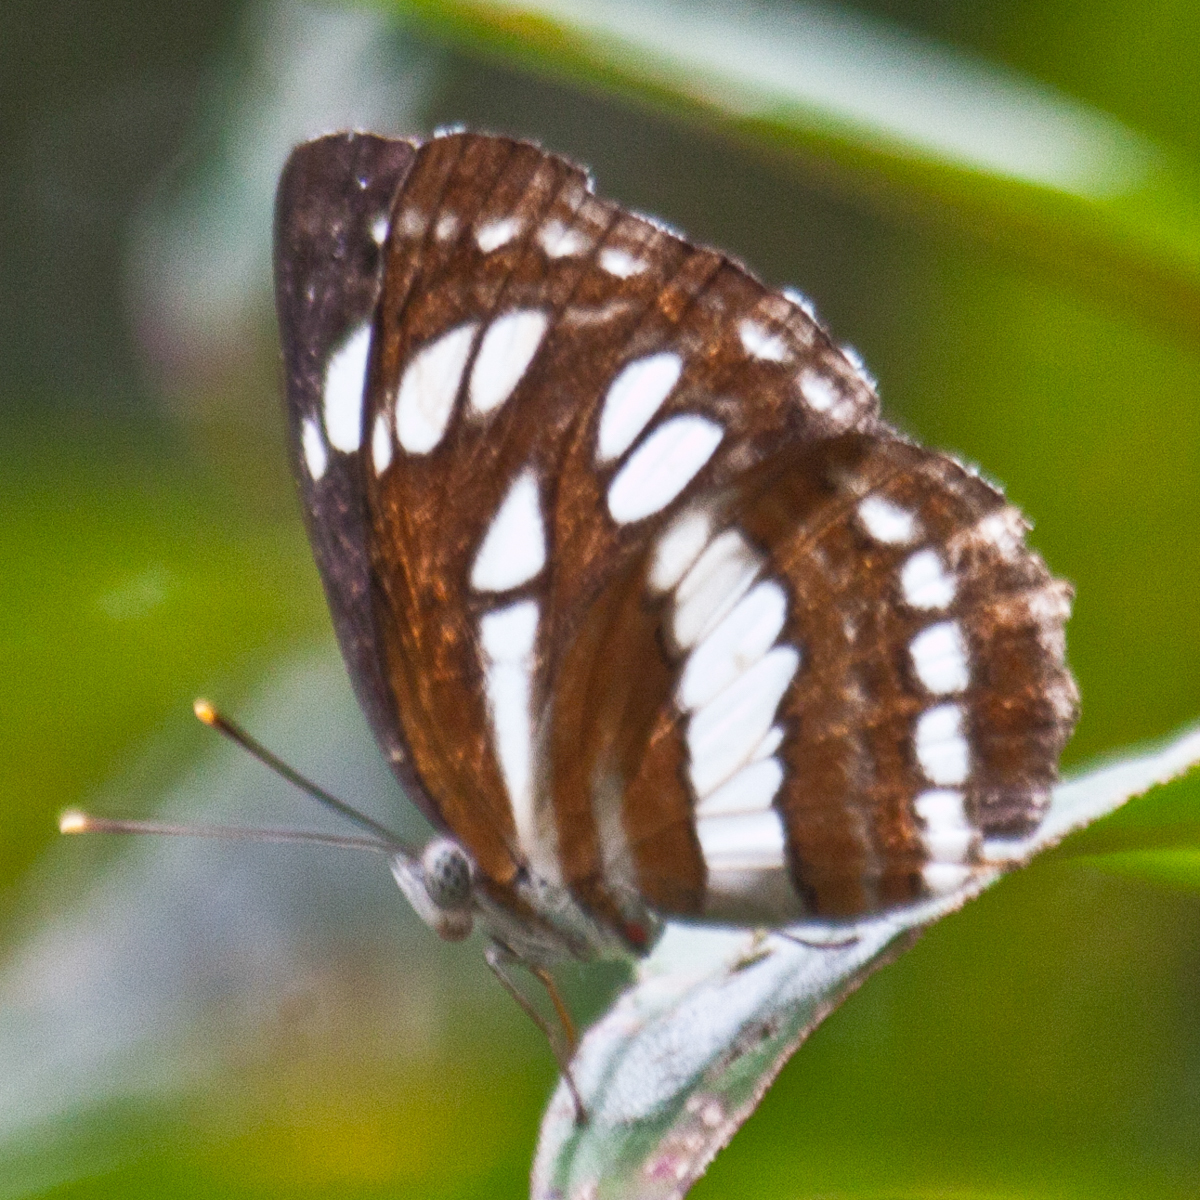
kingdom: Animalia
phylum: Arthropoda
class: Insecta
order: Lepidoptera
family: Nymphalidae
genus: Neptis
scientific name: Neptis hylas
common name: Common sailer
